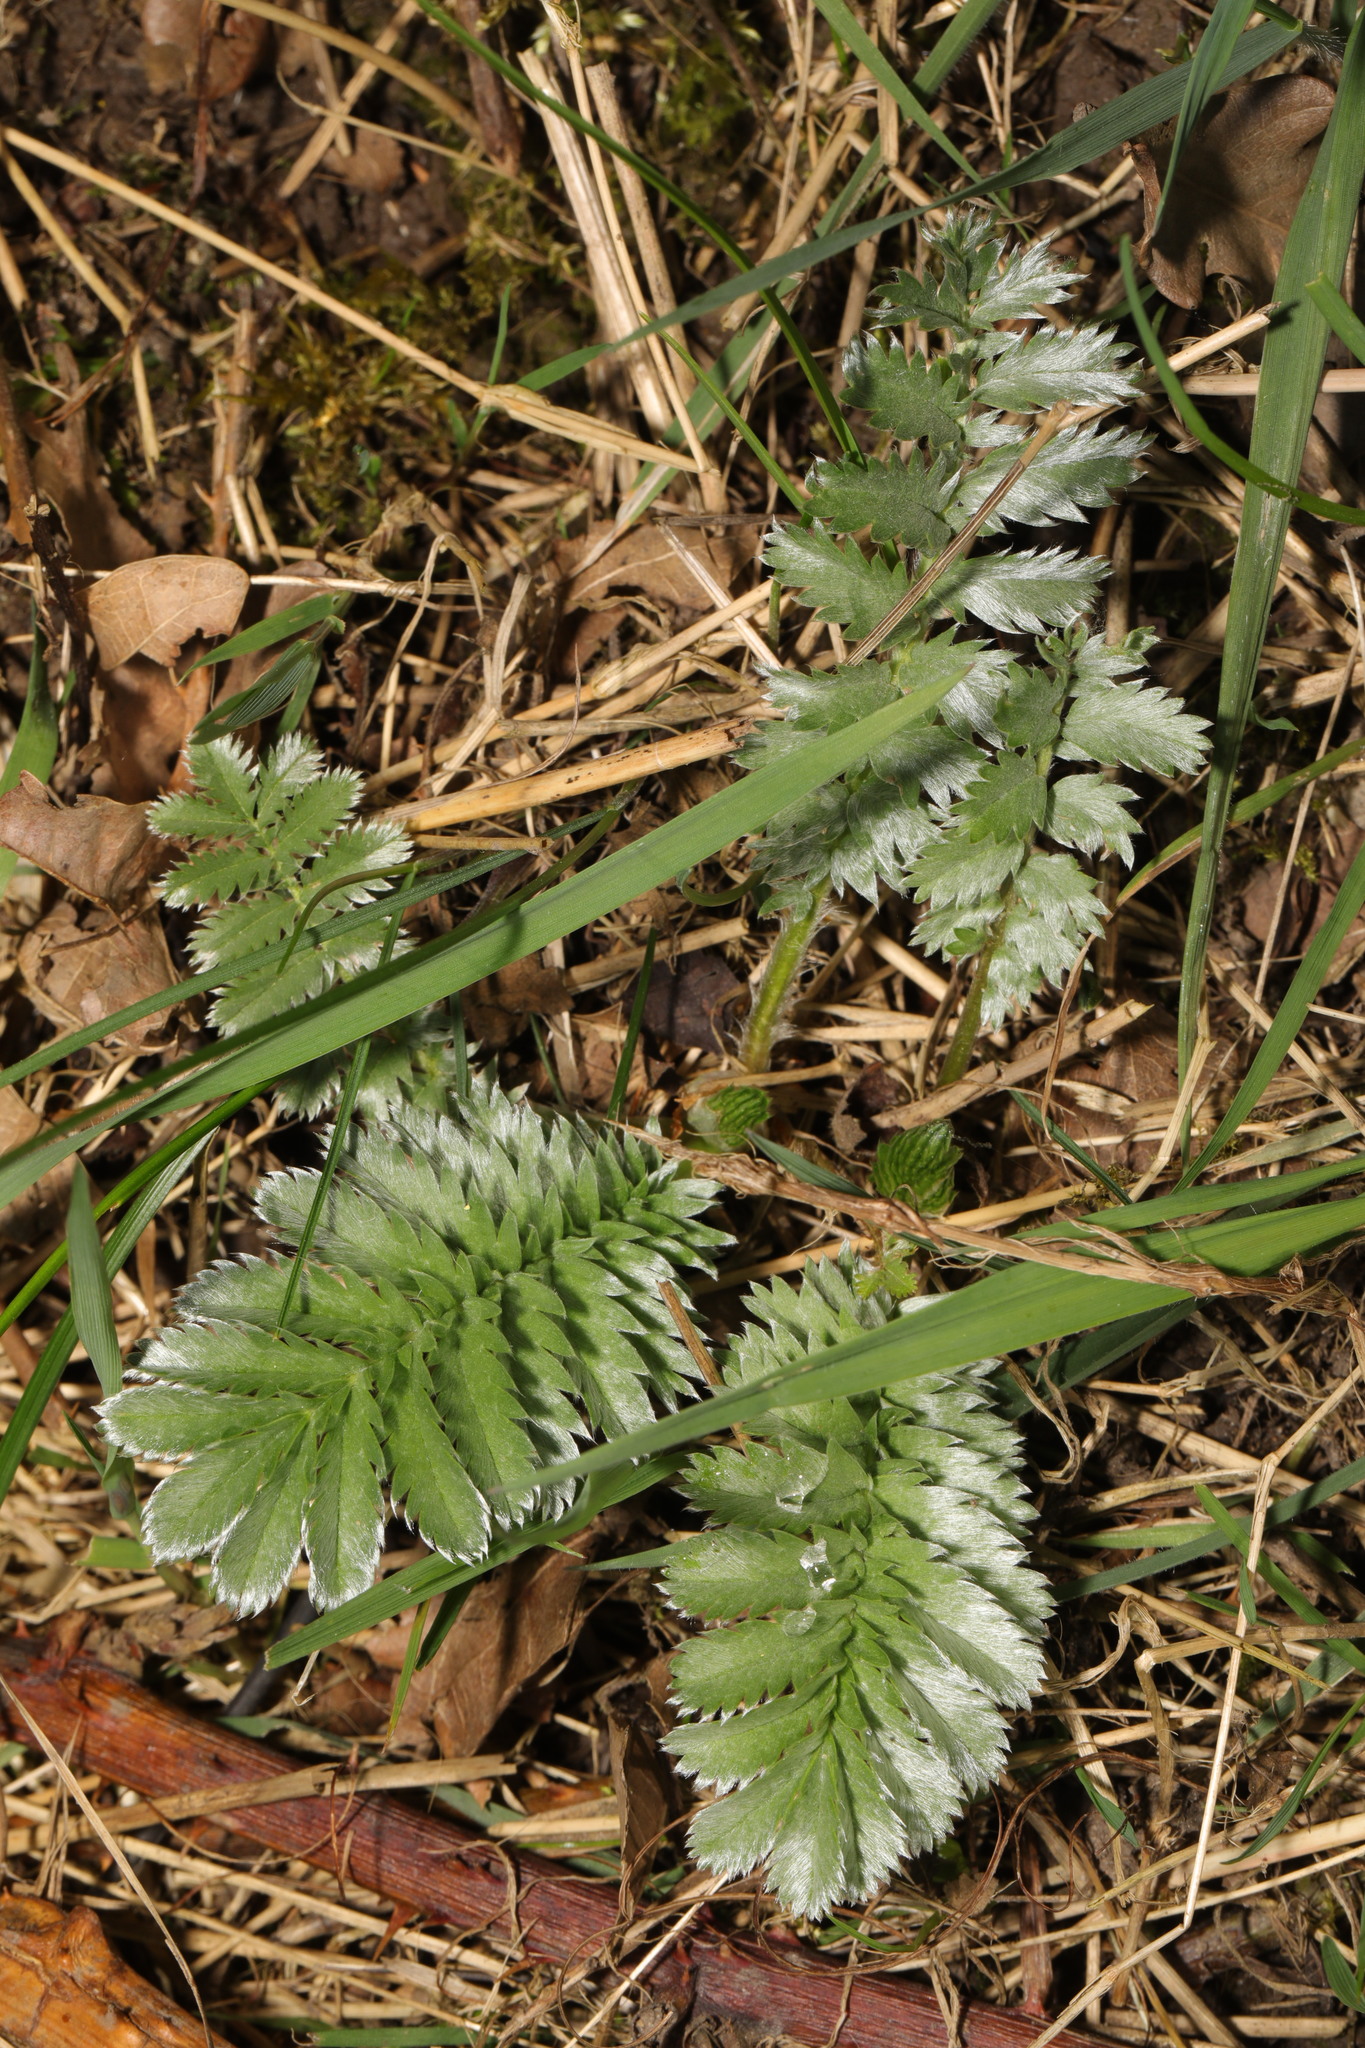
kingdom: Plantae
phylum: Tracheophyta
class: Magnoliopsida
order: Rosales
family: Rosaceae
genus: Argentina
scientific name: Argentina anserina
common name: Common silverweed
